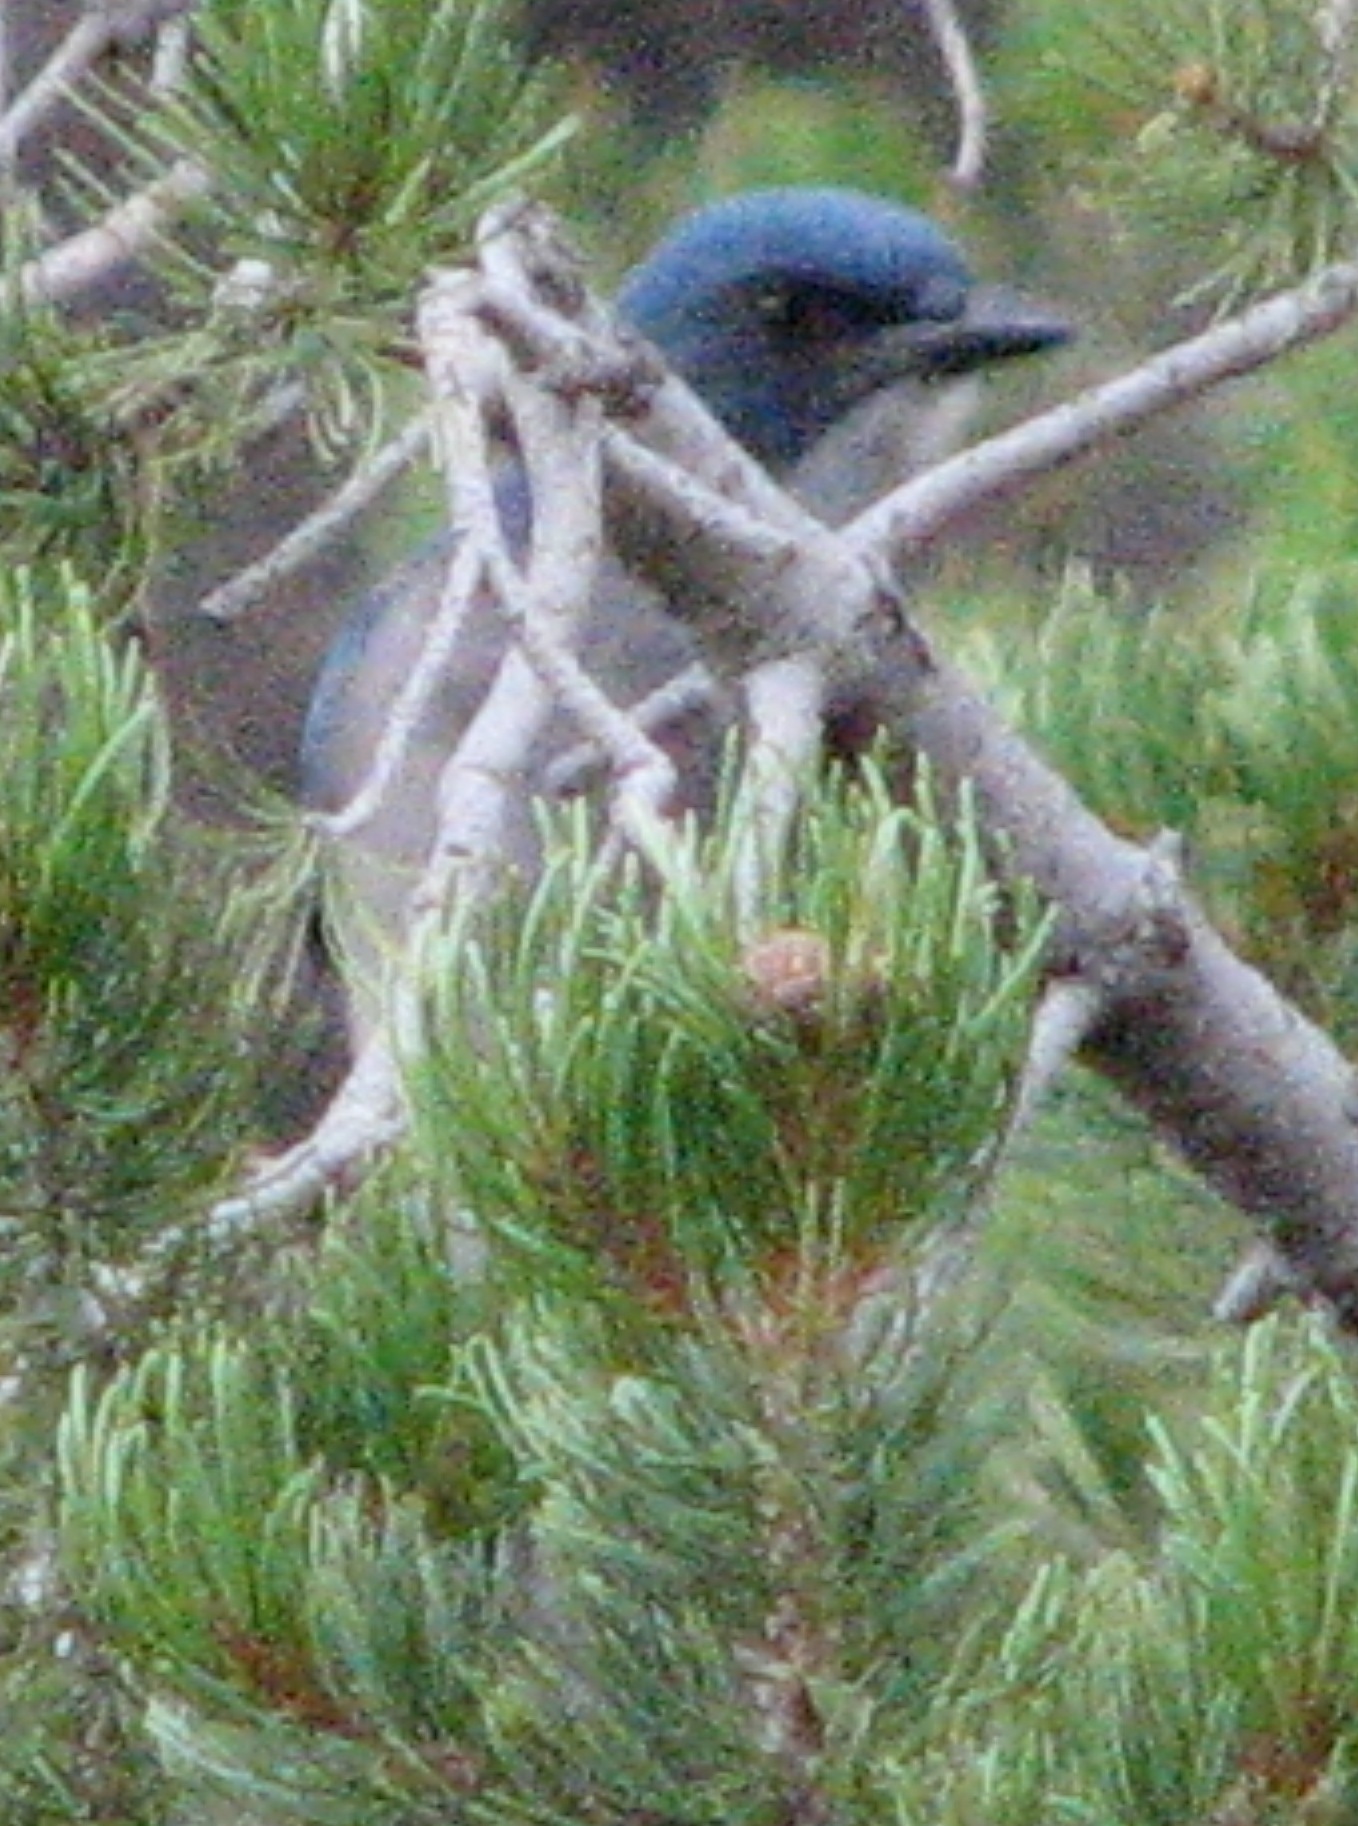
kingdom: Animalia
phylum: Chordata
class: Aves
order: Passeriformes
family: Corvidae
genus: Aphelocoma
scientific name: Aphelocoma wollweberi
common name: Mexican jay
